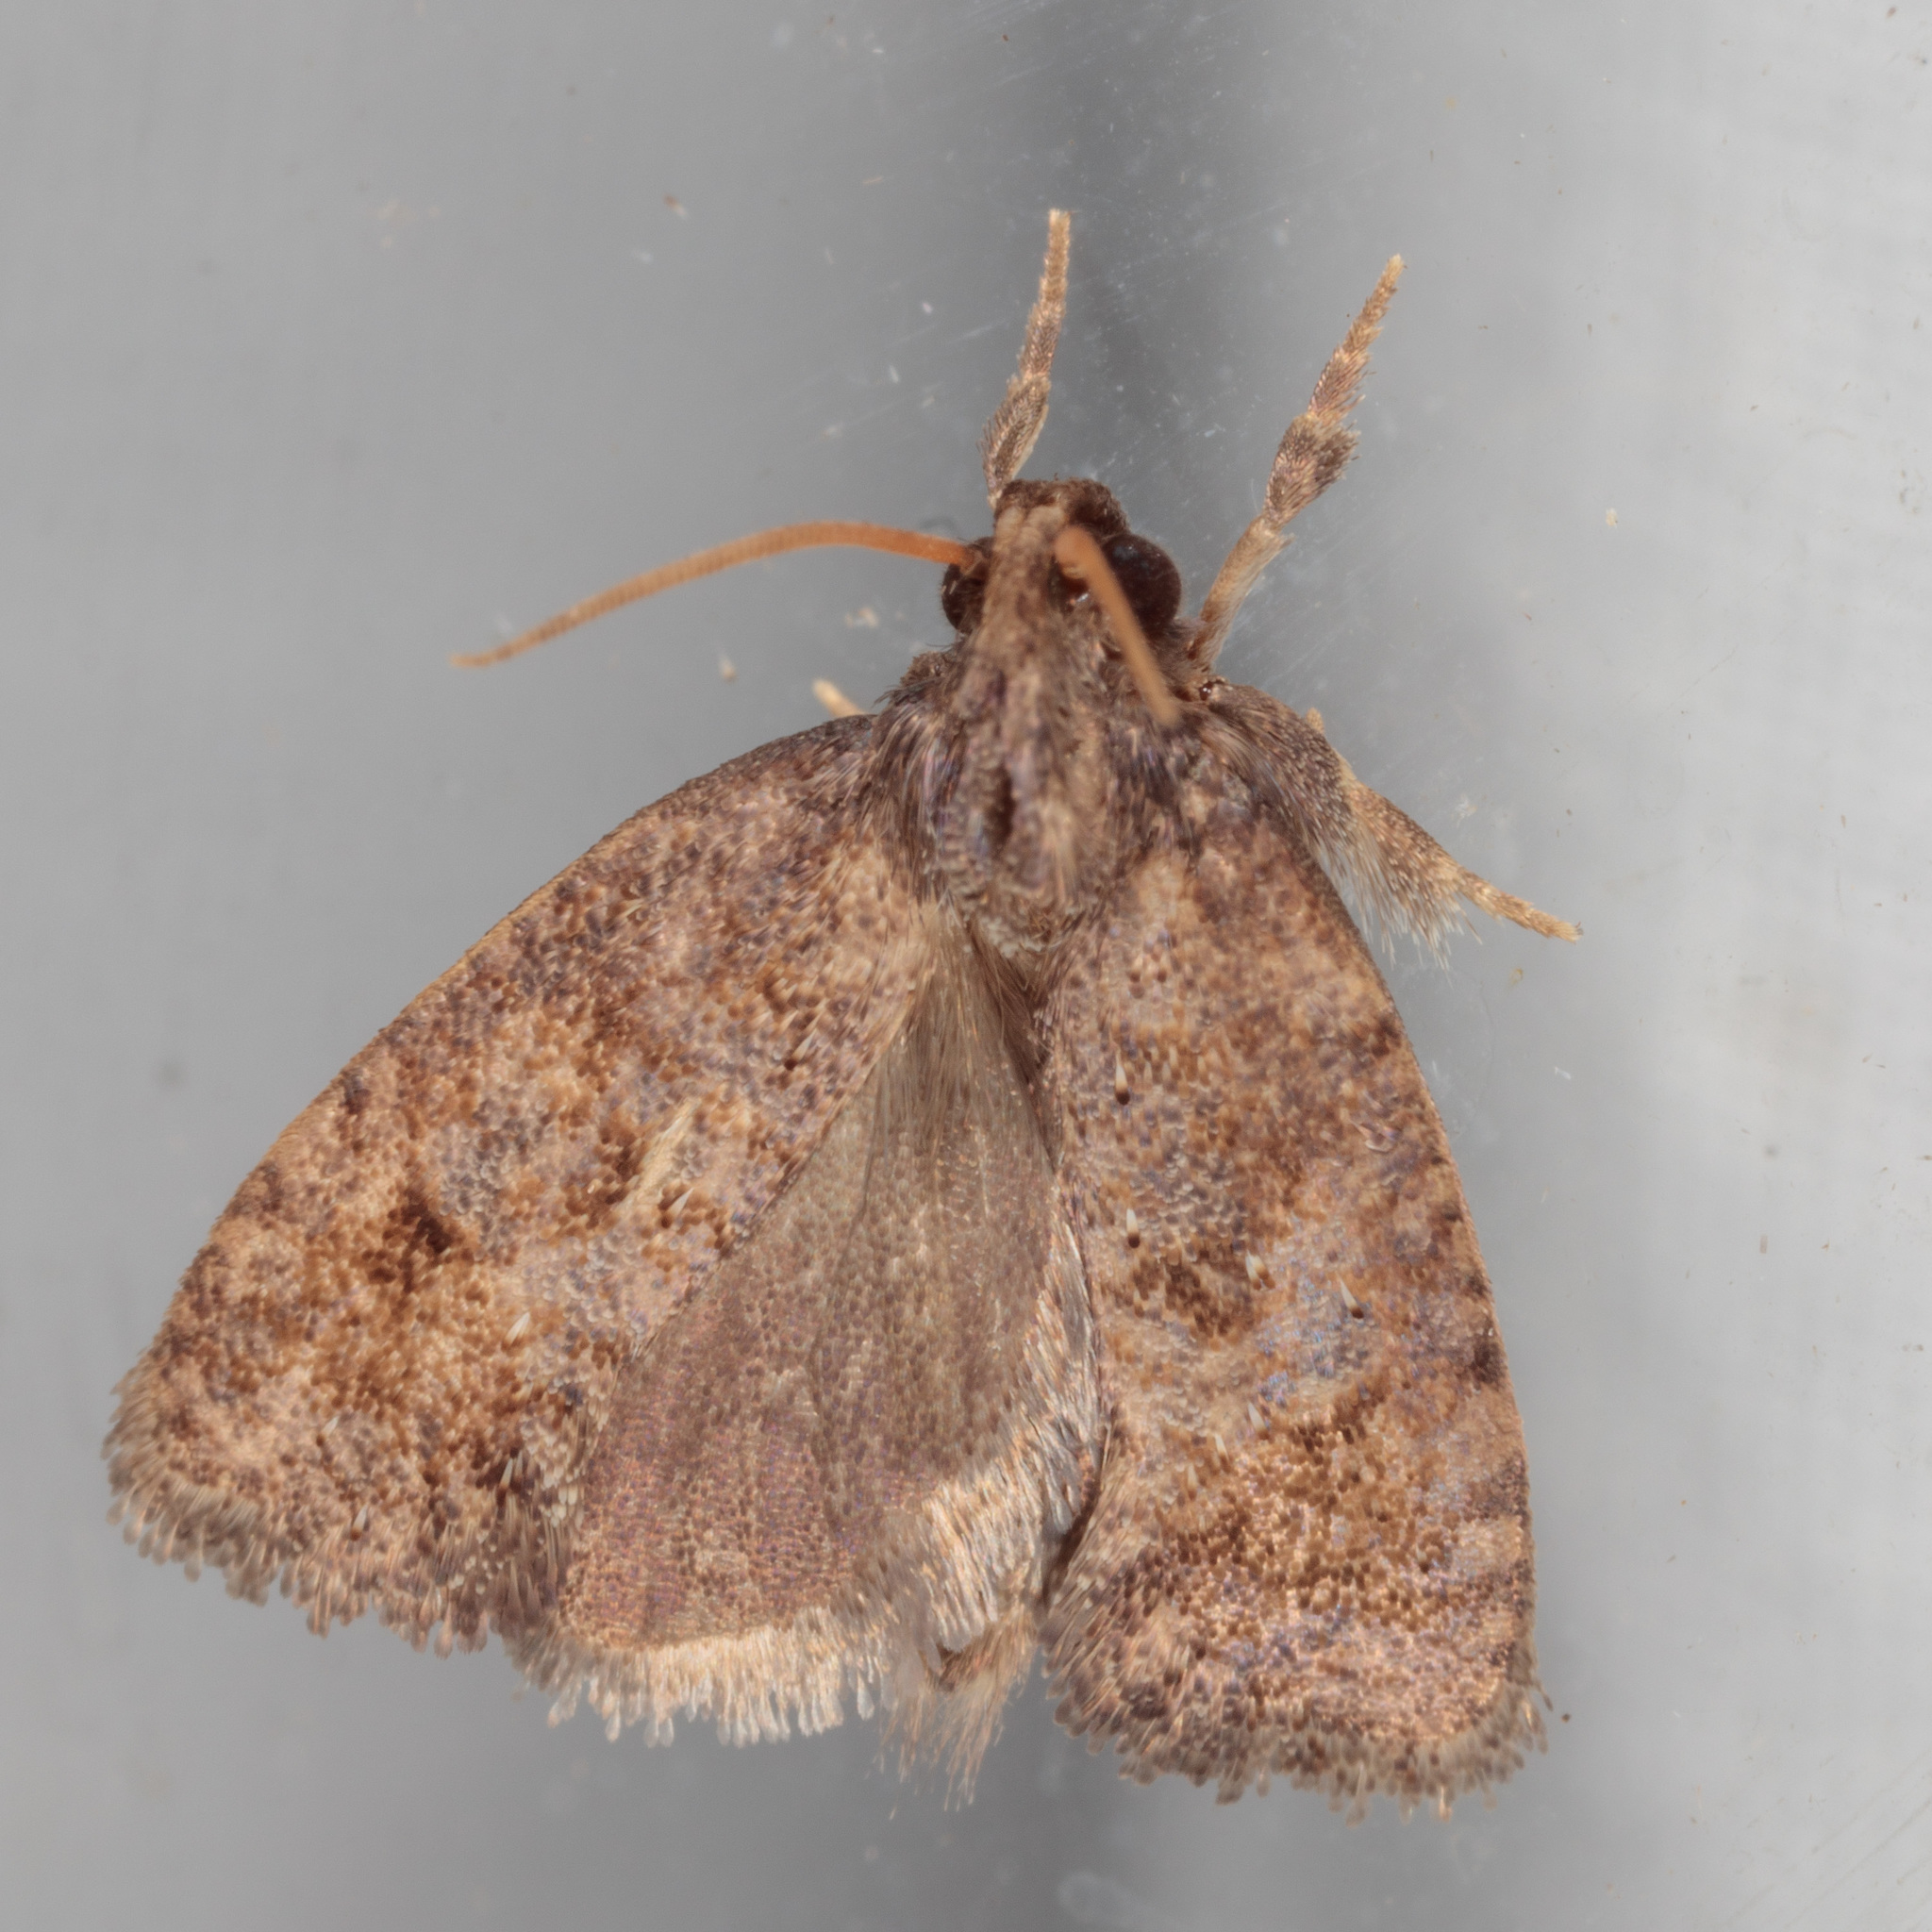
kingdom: Animalia
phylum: Arthropoda
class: Insecta
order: Lepidoptera
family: Tineidae
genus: Acrolophus
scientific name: Acrolophus texanella
